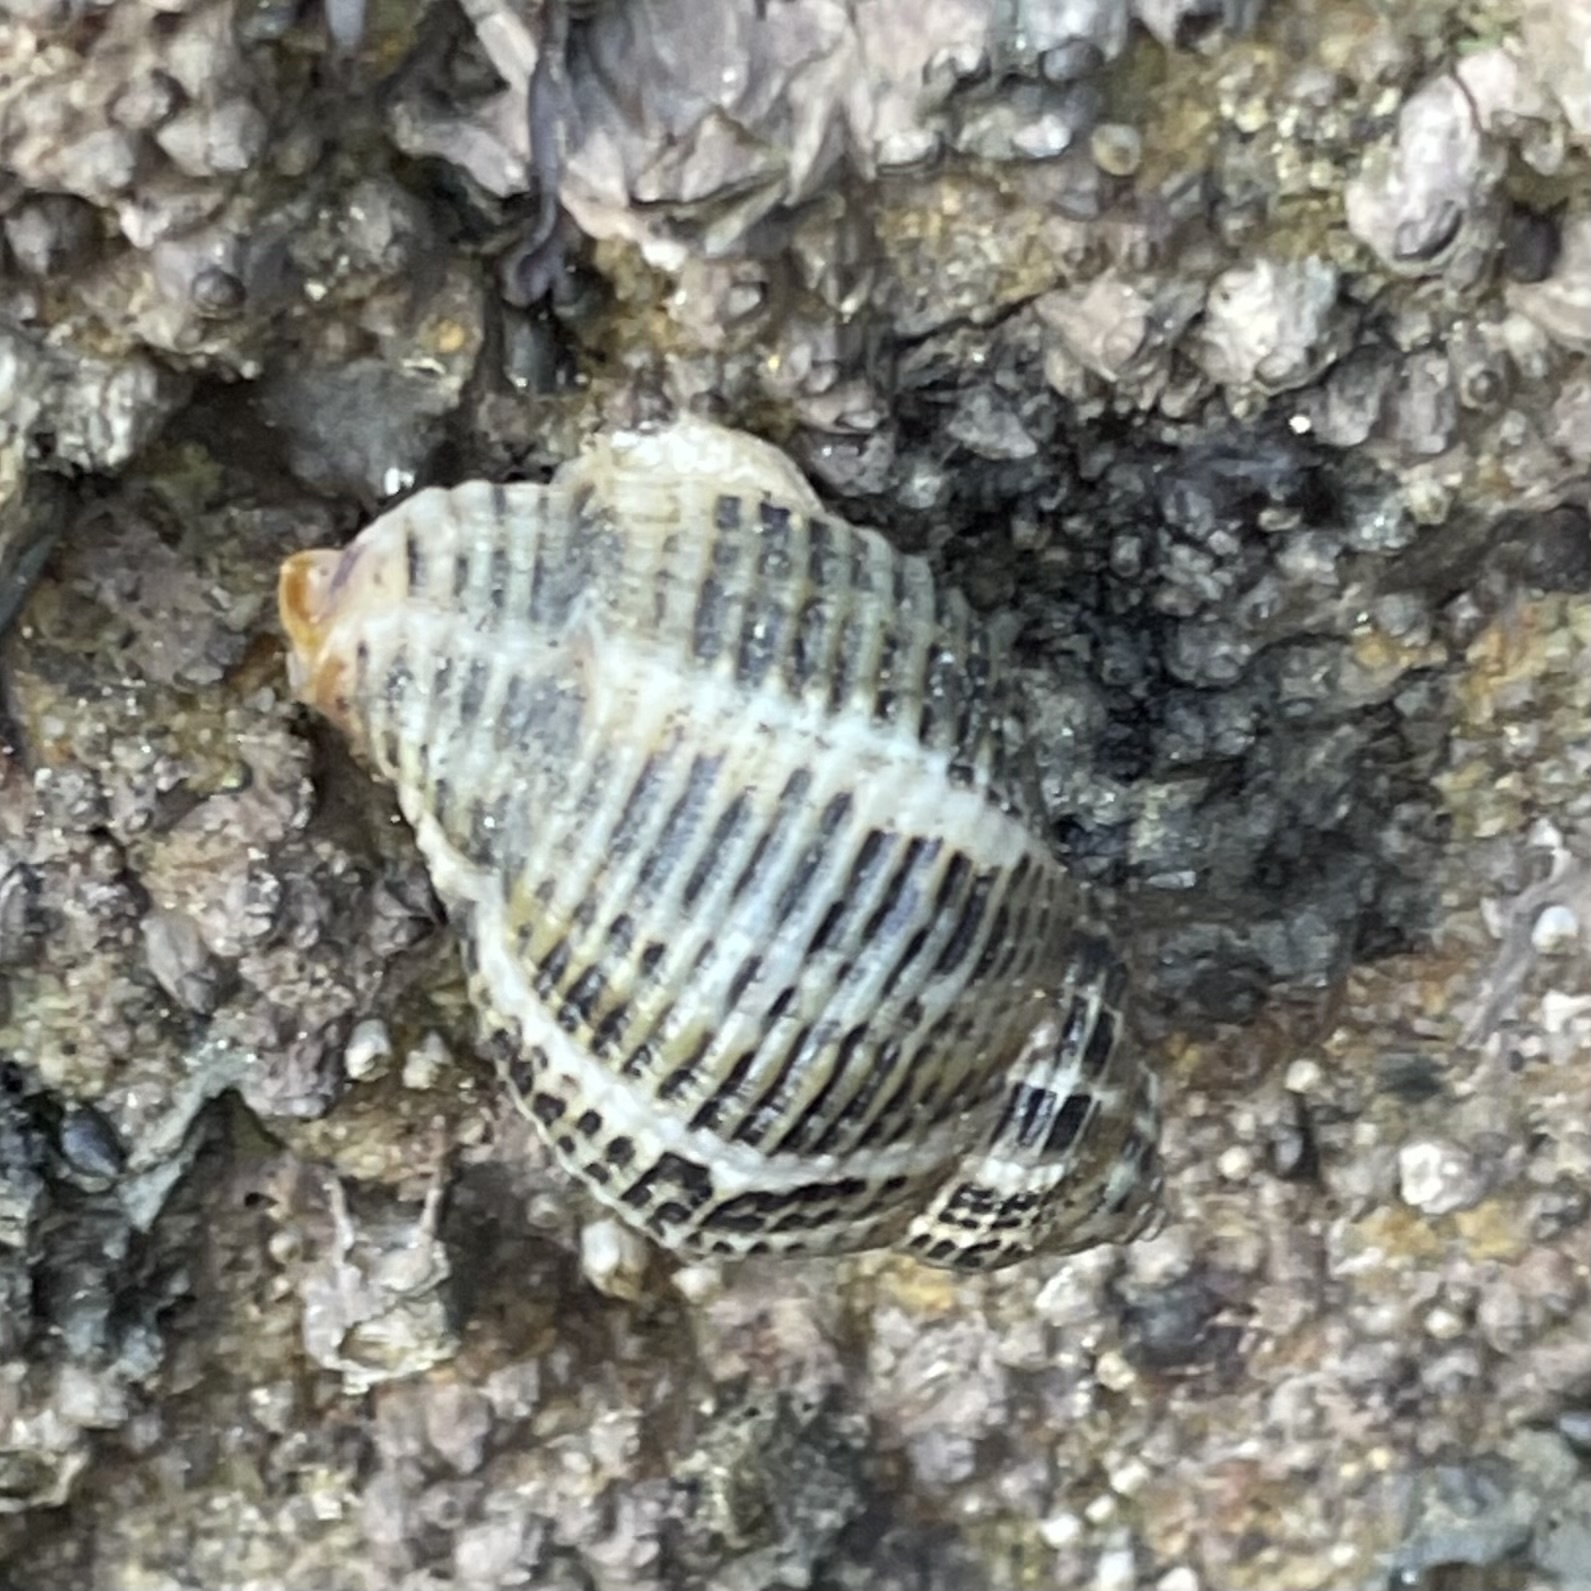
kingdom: Animalia
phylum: Mollusca
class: Gastropoda
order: Neogastropoda
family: Muricidae
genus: Acanthinucella
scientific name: Acanthinucella spirata
